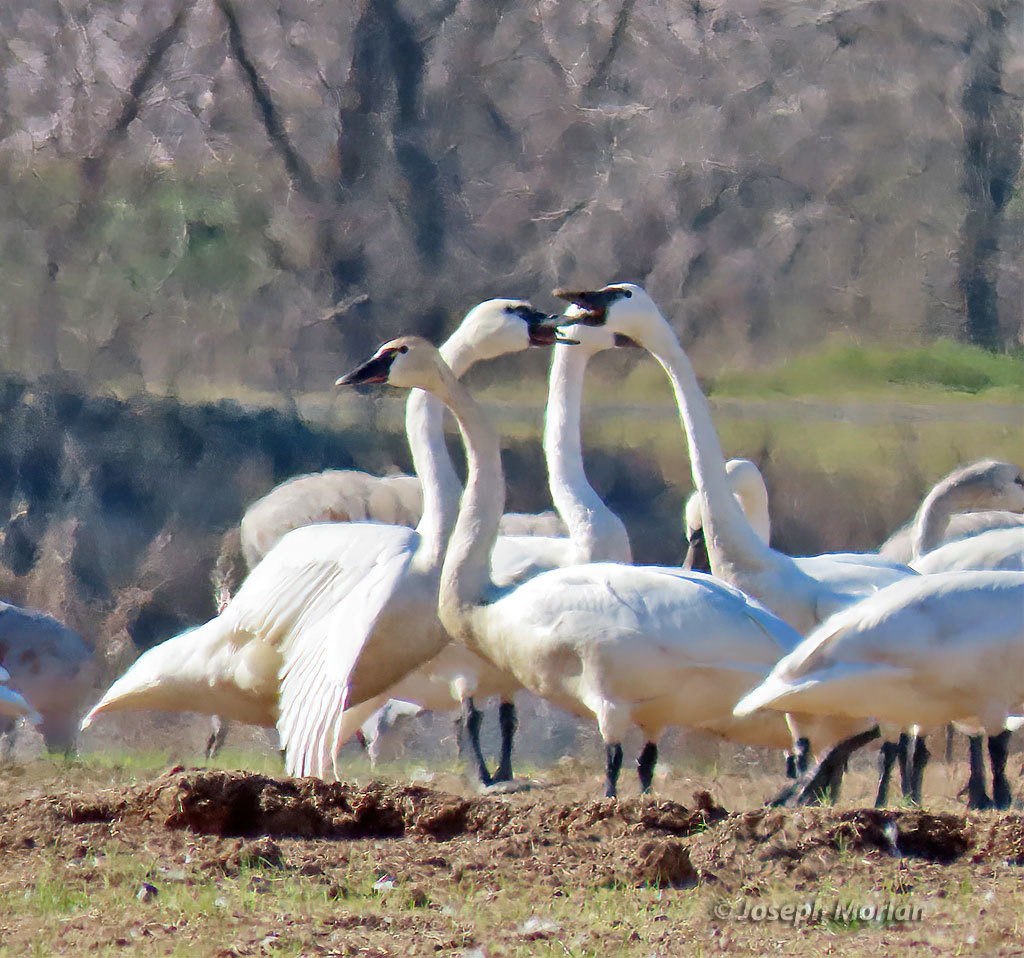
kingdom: Animalia
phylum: Chordata
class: Aves
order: Anseriformes
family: Anatidae
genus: Cygnus
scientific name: Cygnus buccinator
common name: Trumpeter swan
